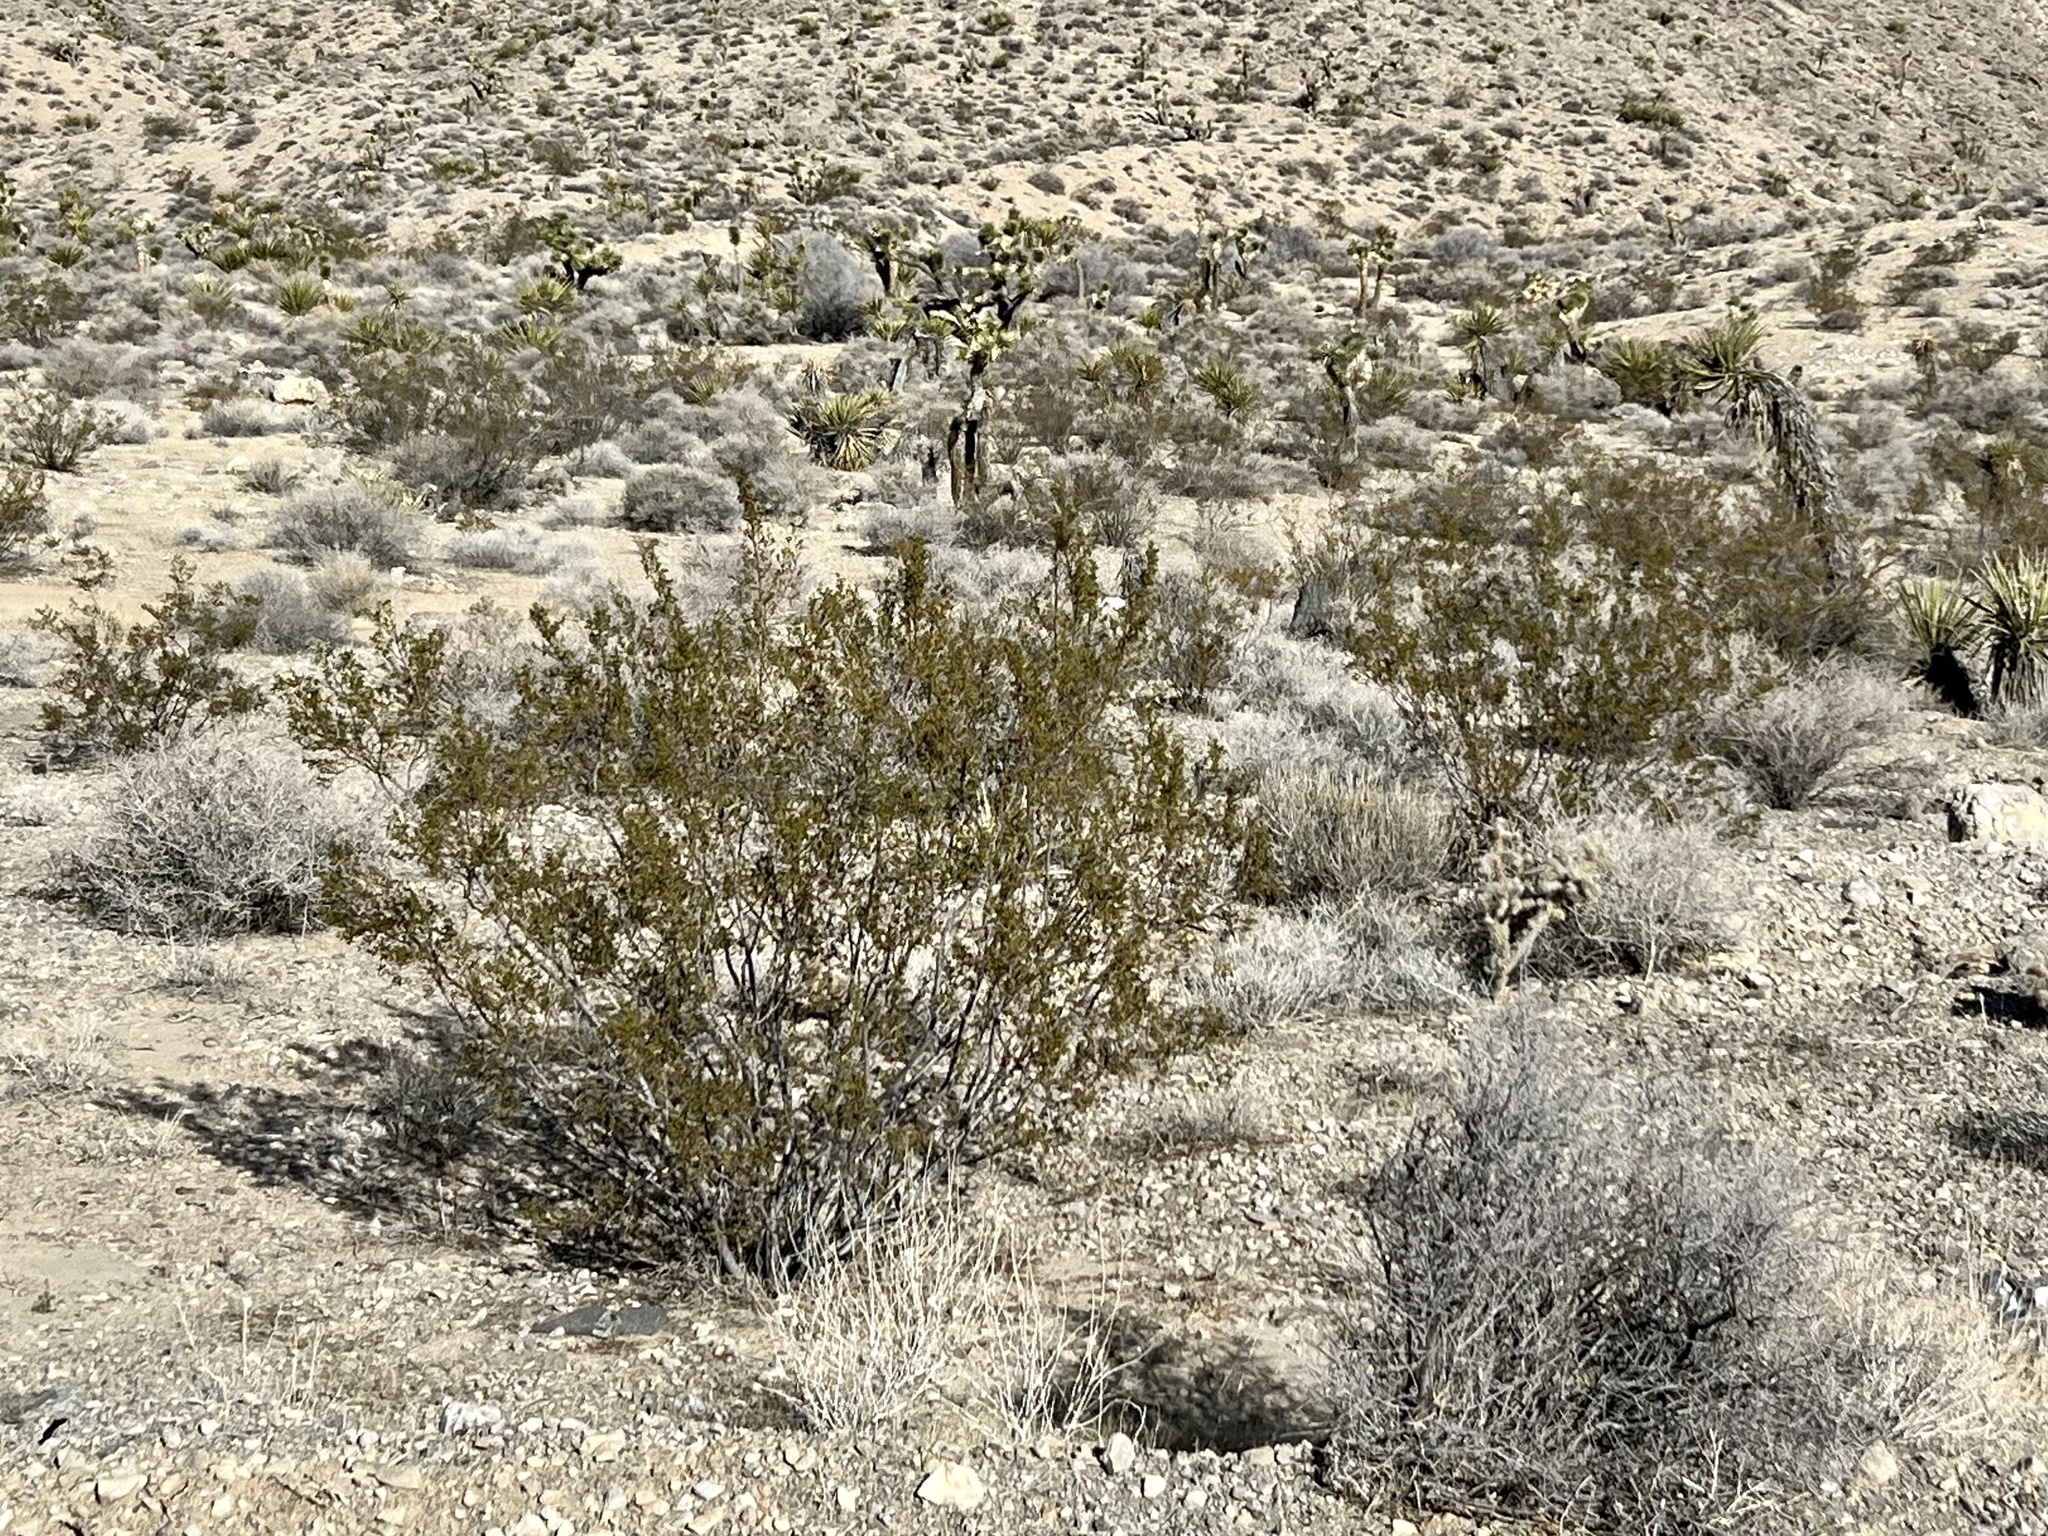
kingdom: Plantae
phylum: Tracheophyta
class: Magnoliopsida
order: Zygophyllales
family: Zygophyllaceae
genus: Larrea
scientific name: Larrea tridentata
